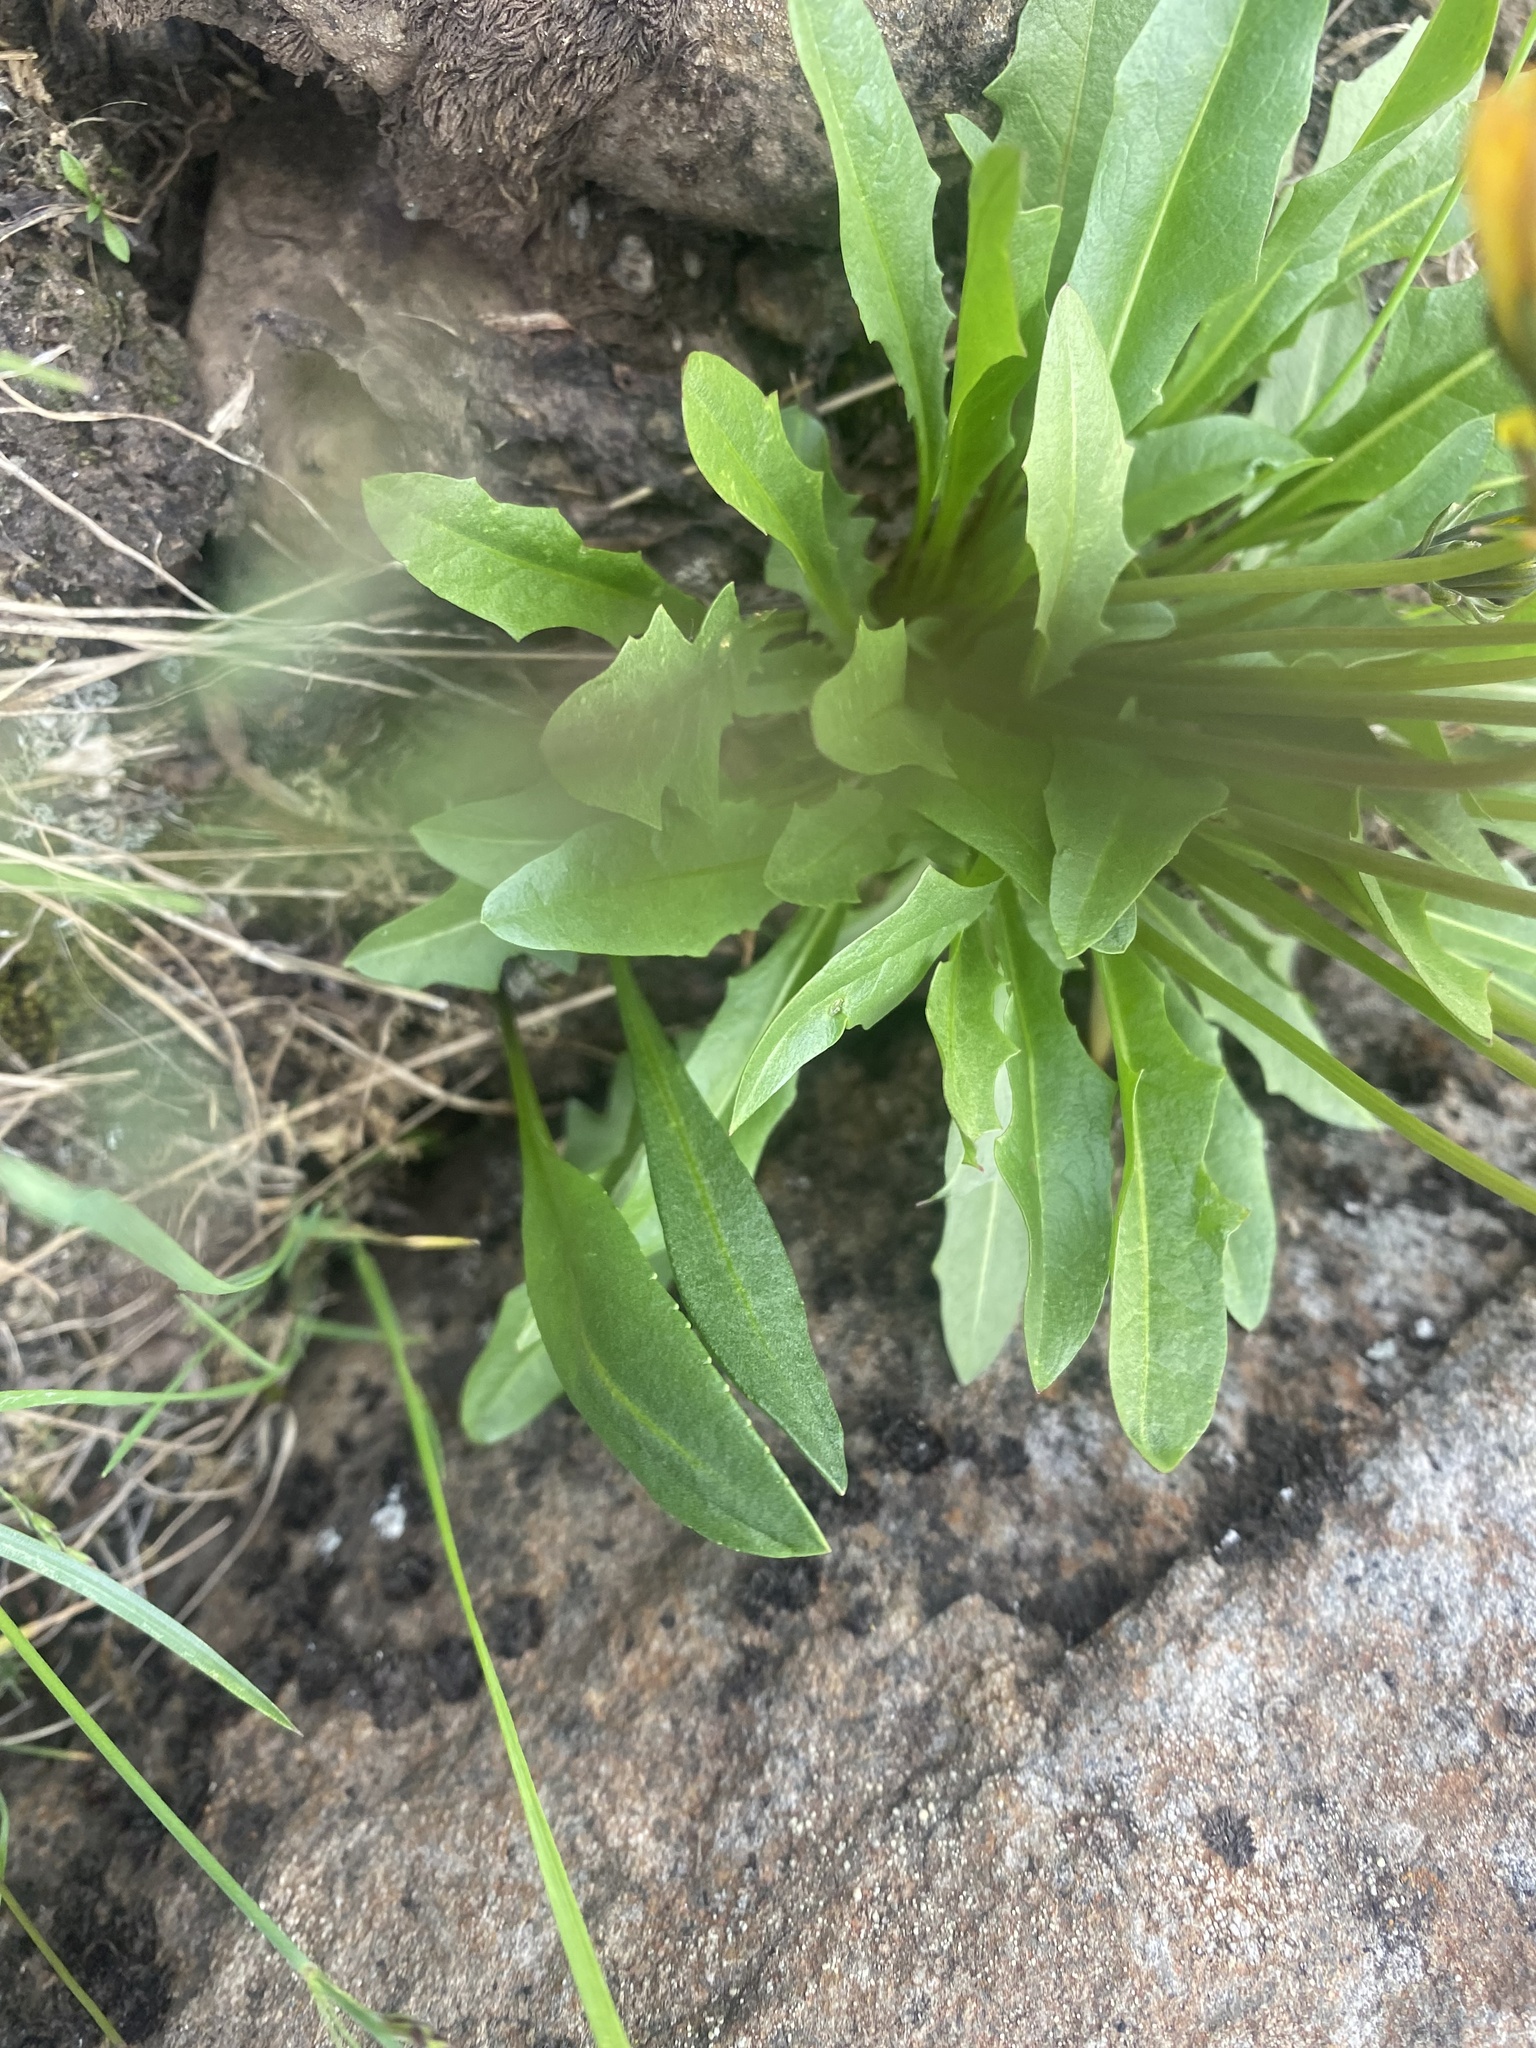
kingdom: Plantae
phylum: Tracheophyta
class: Magnoliopsida
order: Asterales
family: Asteraceae
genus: Taraxacum
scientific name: Taraxacum glabrum
